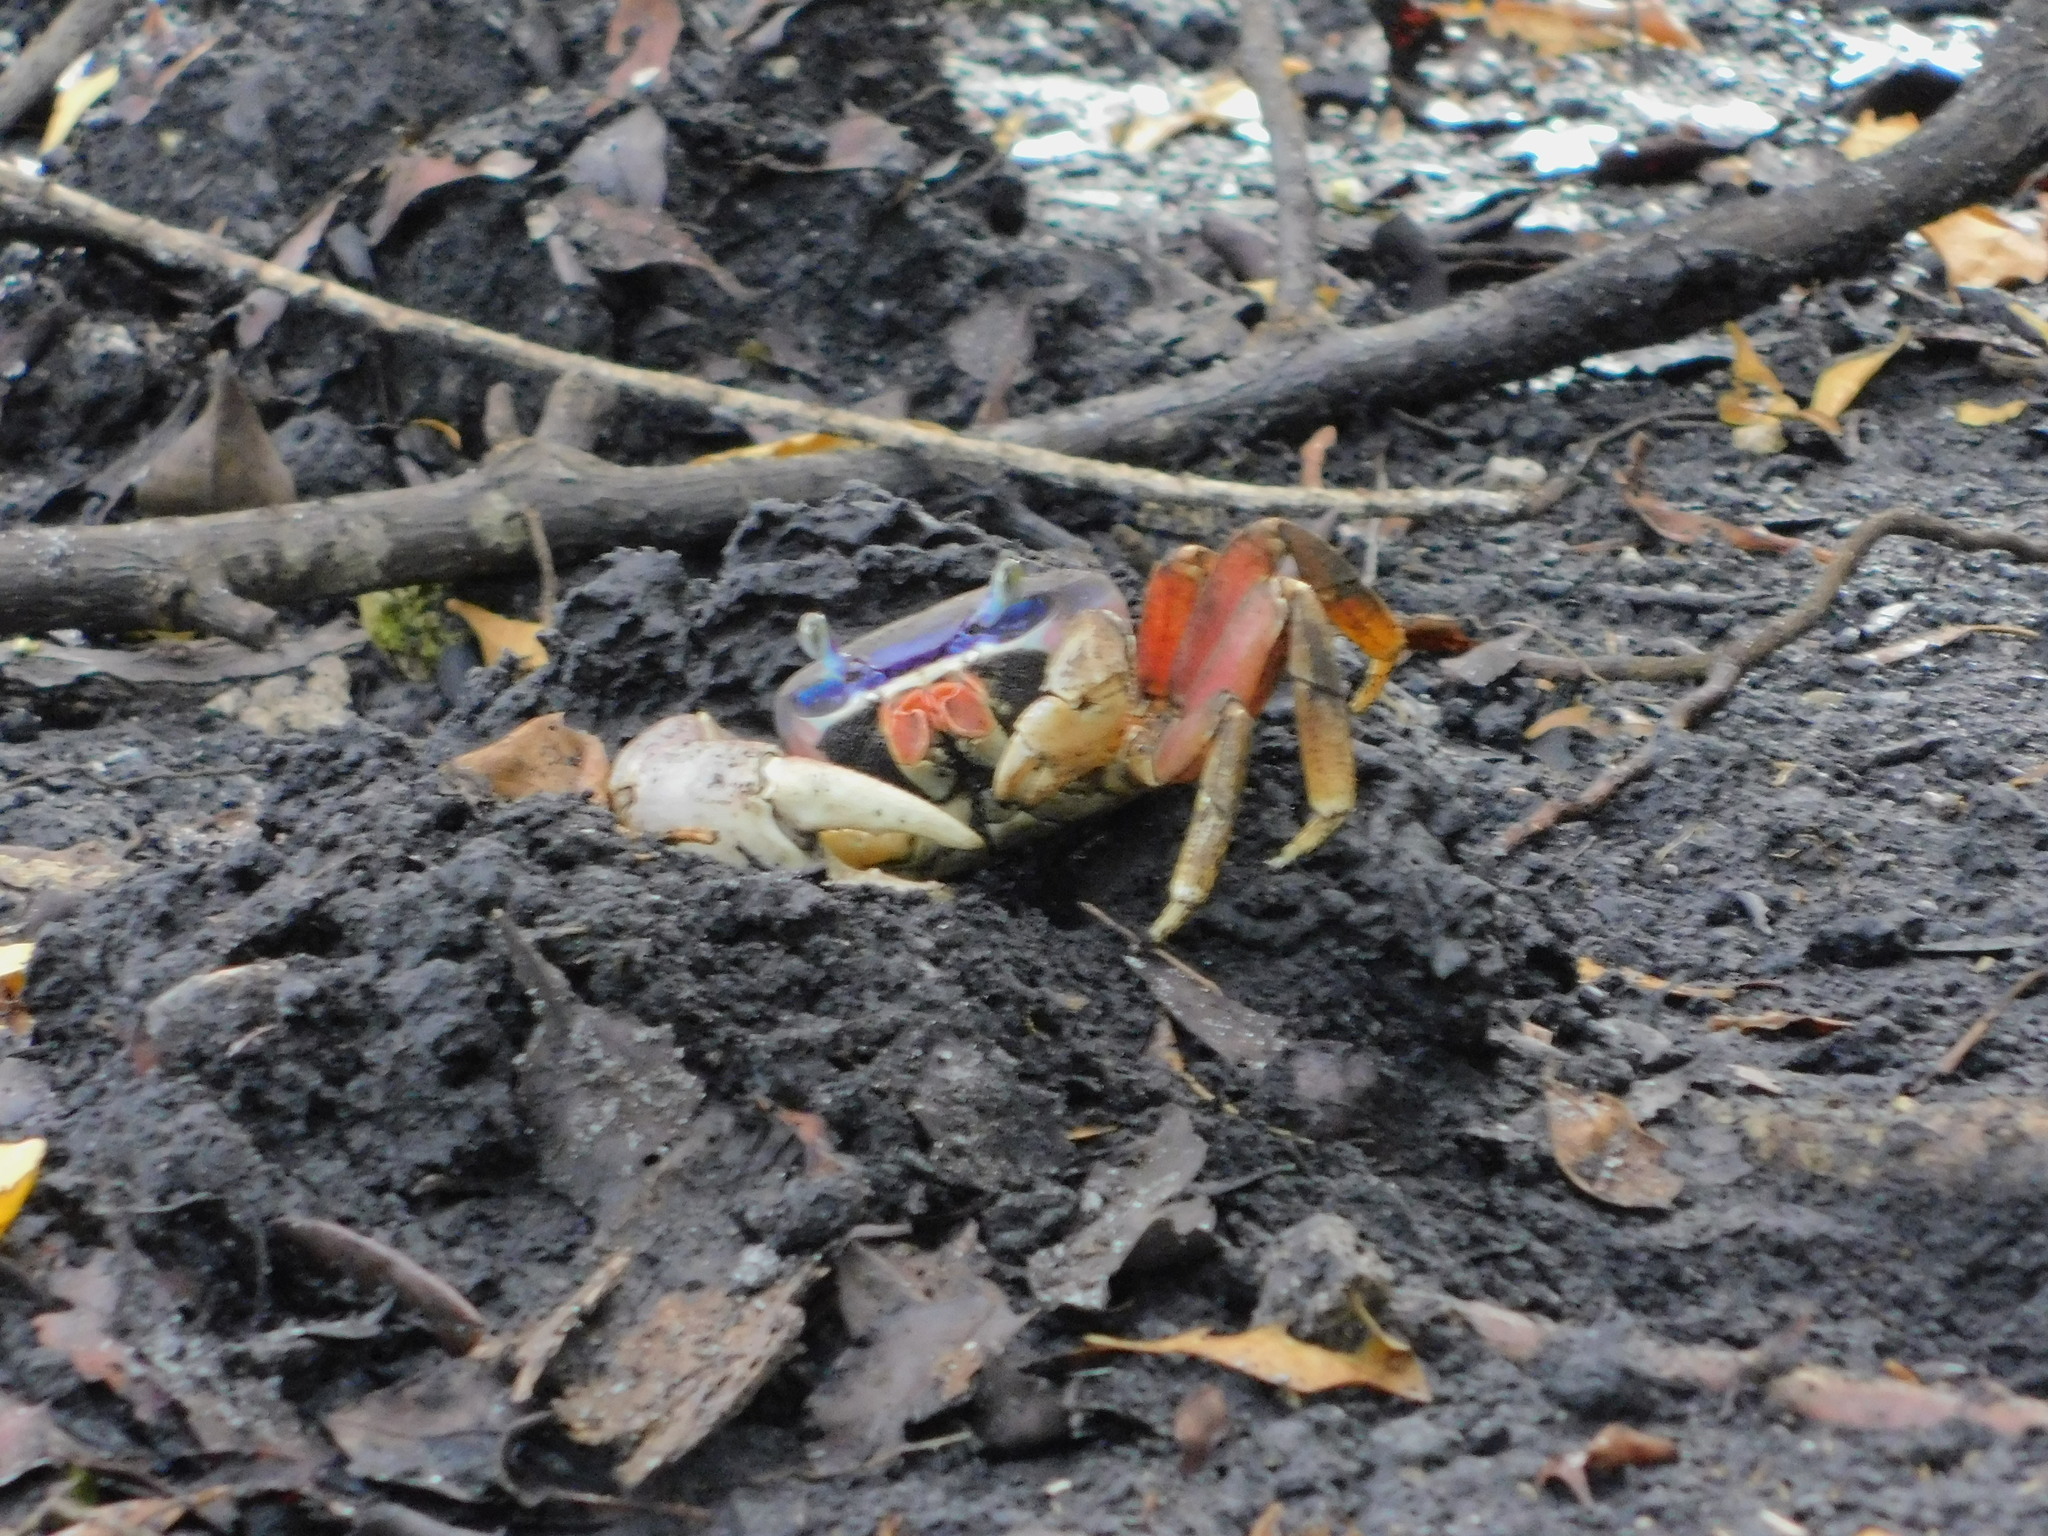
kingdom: Animalia
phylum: Arthropoda
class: Malacostraca
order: Decapoda
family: Gecarcinidae
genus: Cardisoma
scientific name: Cardisoma guanhumi
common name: Great land crab
